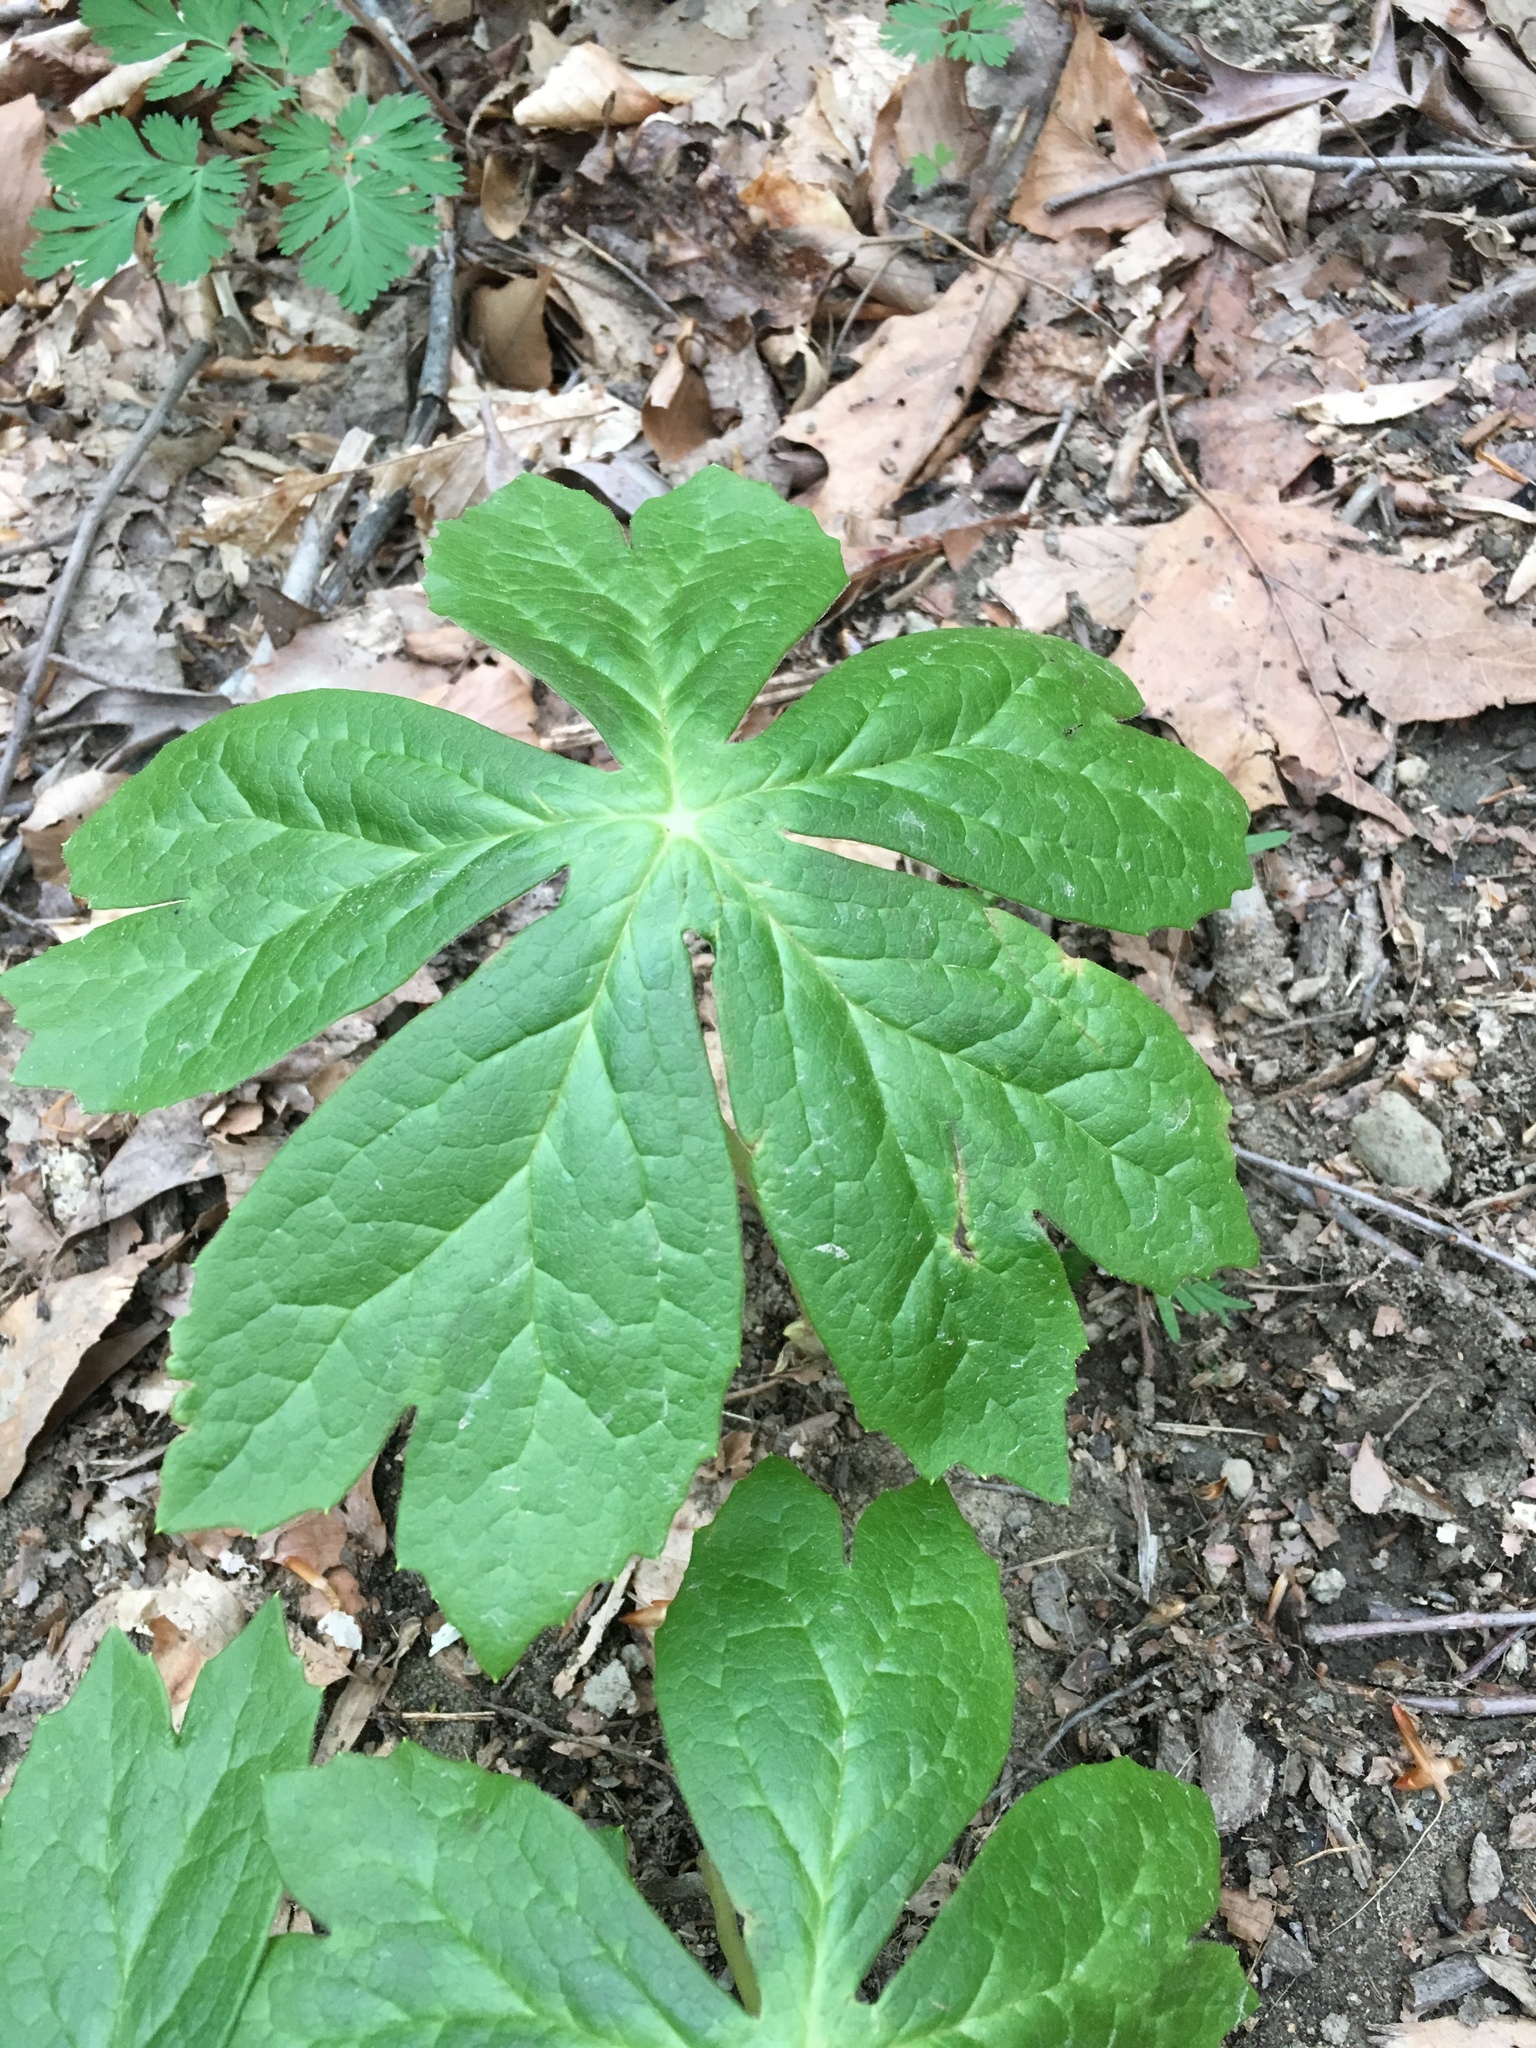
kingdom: Plantae
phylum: Tracheophyta
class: Magnoliopsida
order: Ranunculales
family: Berberidaceae
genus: Podophyllum
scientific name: Podophyllum peltatum
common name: Wild mandrake
